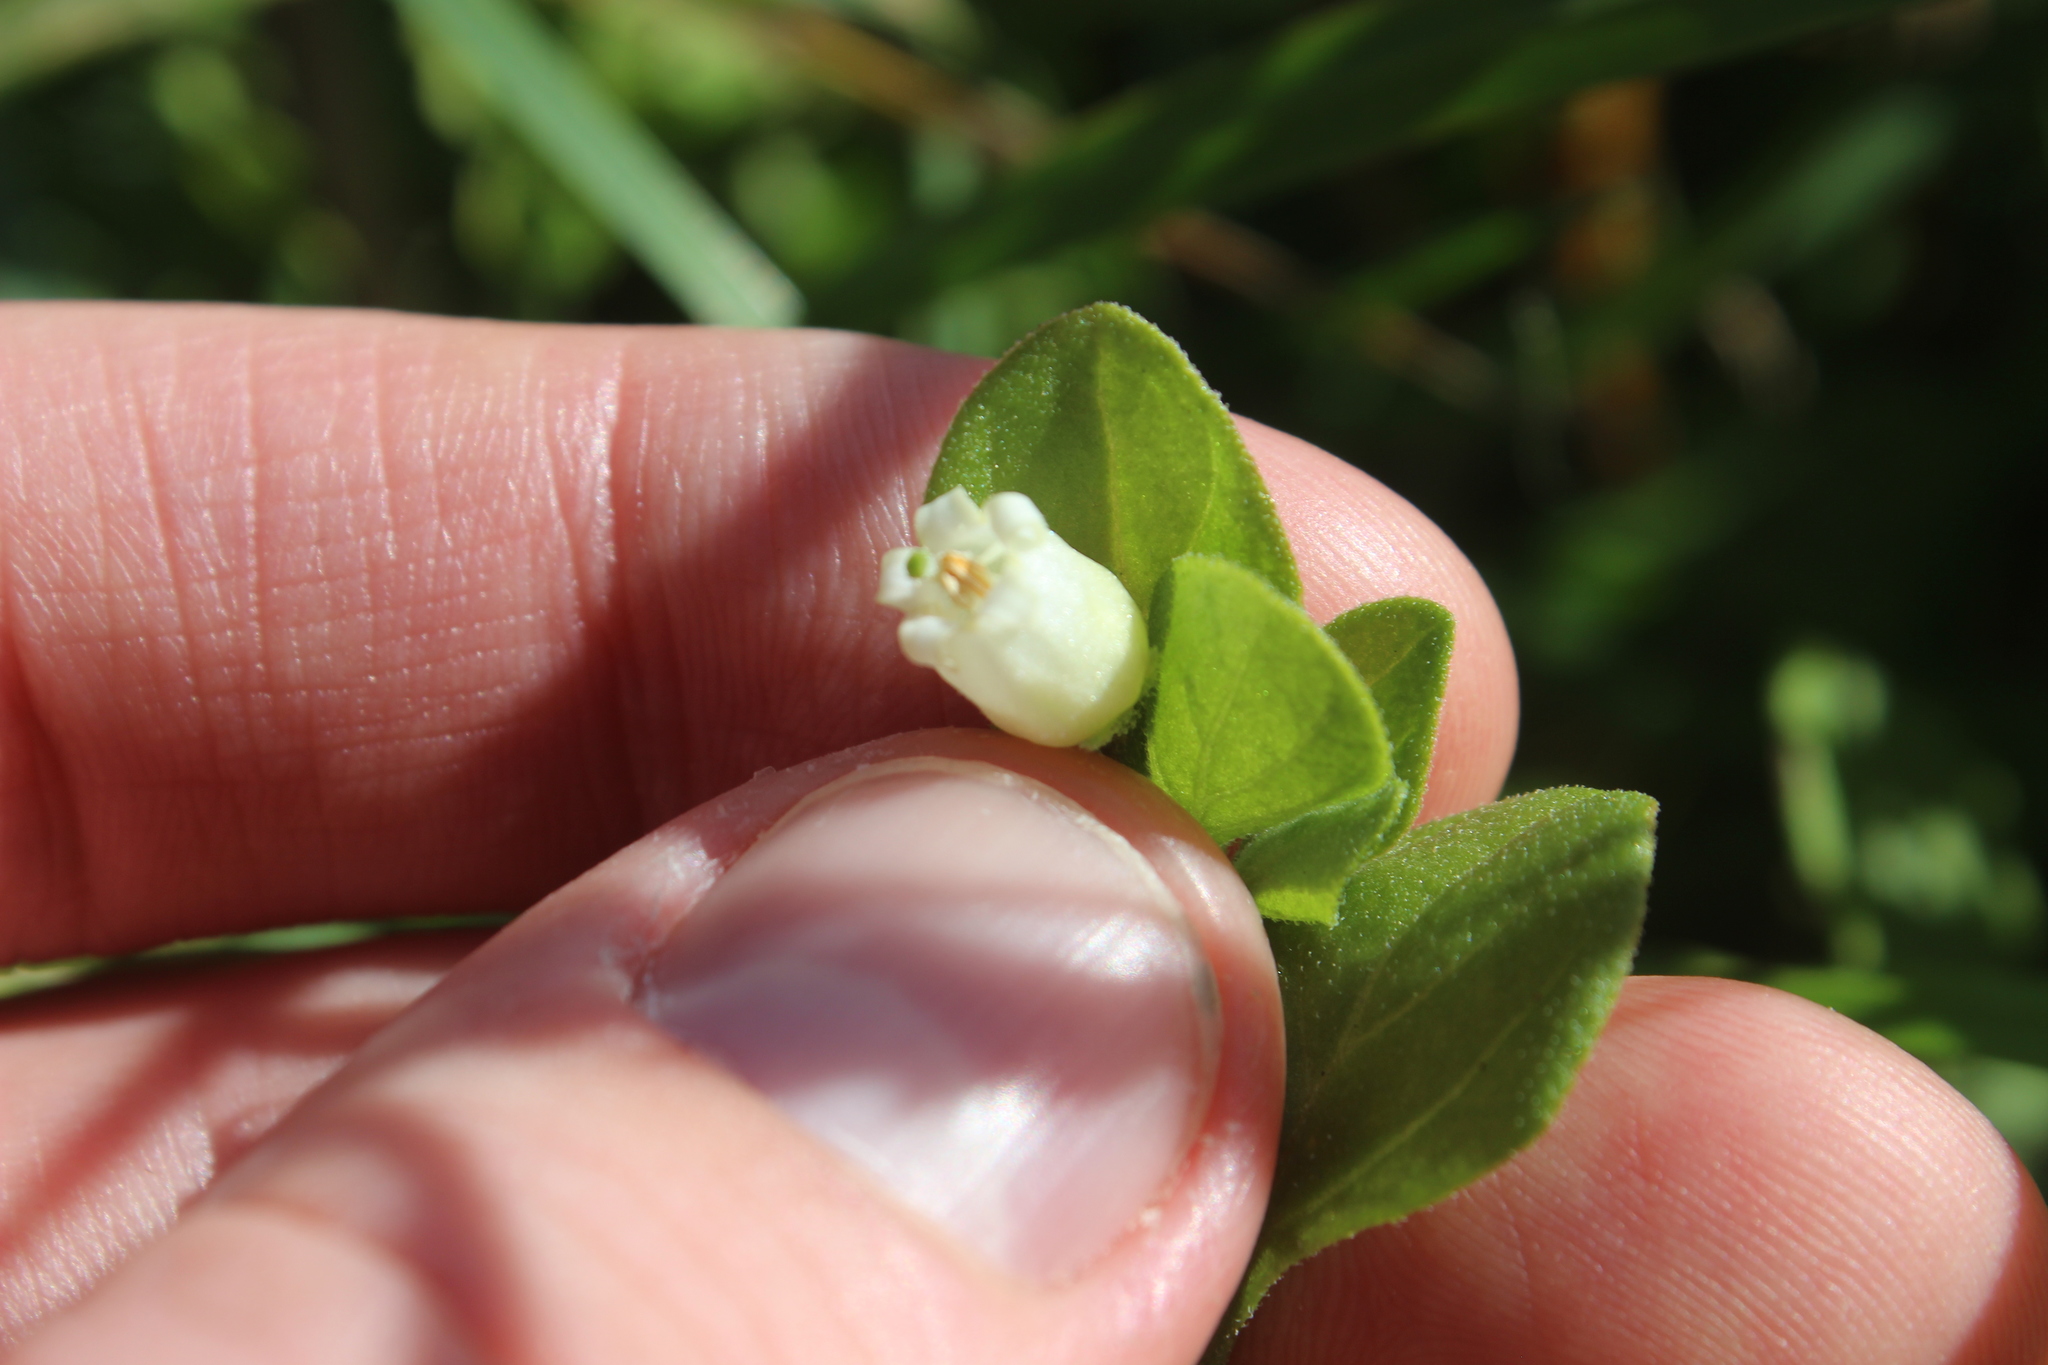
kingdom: Plantae
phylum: Tracheophyta
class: Magnoliopsida
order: Solanales
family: Solanaceae
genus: Salpichroa
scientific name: Salpichroa origanifolia
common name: Lily-of-the-valley-vine
